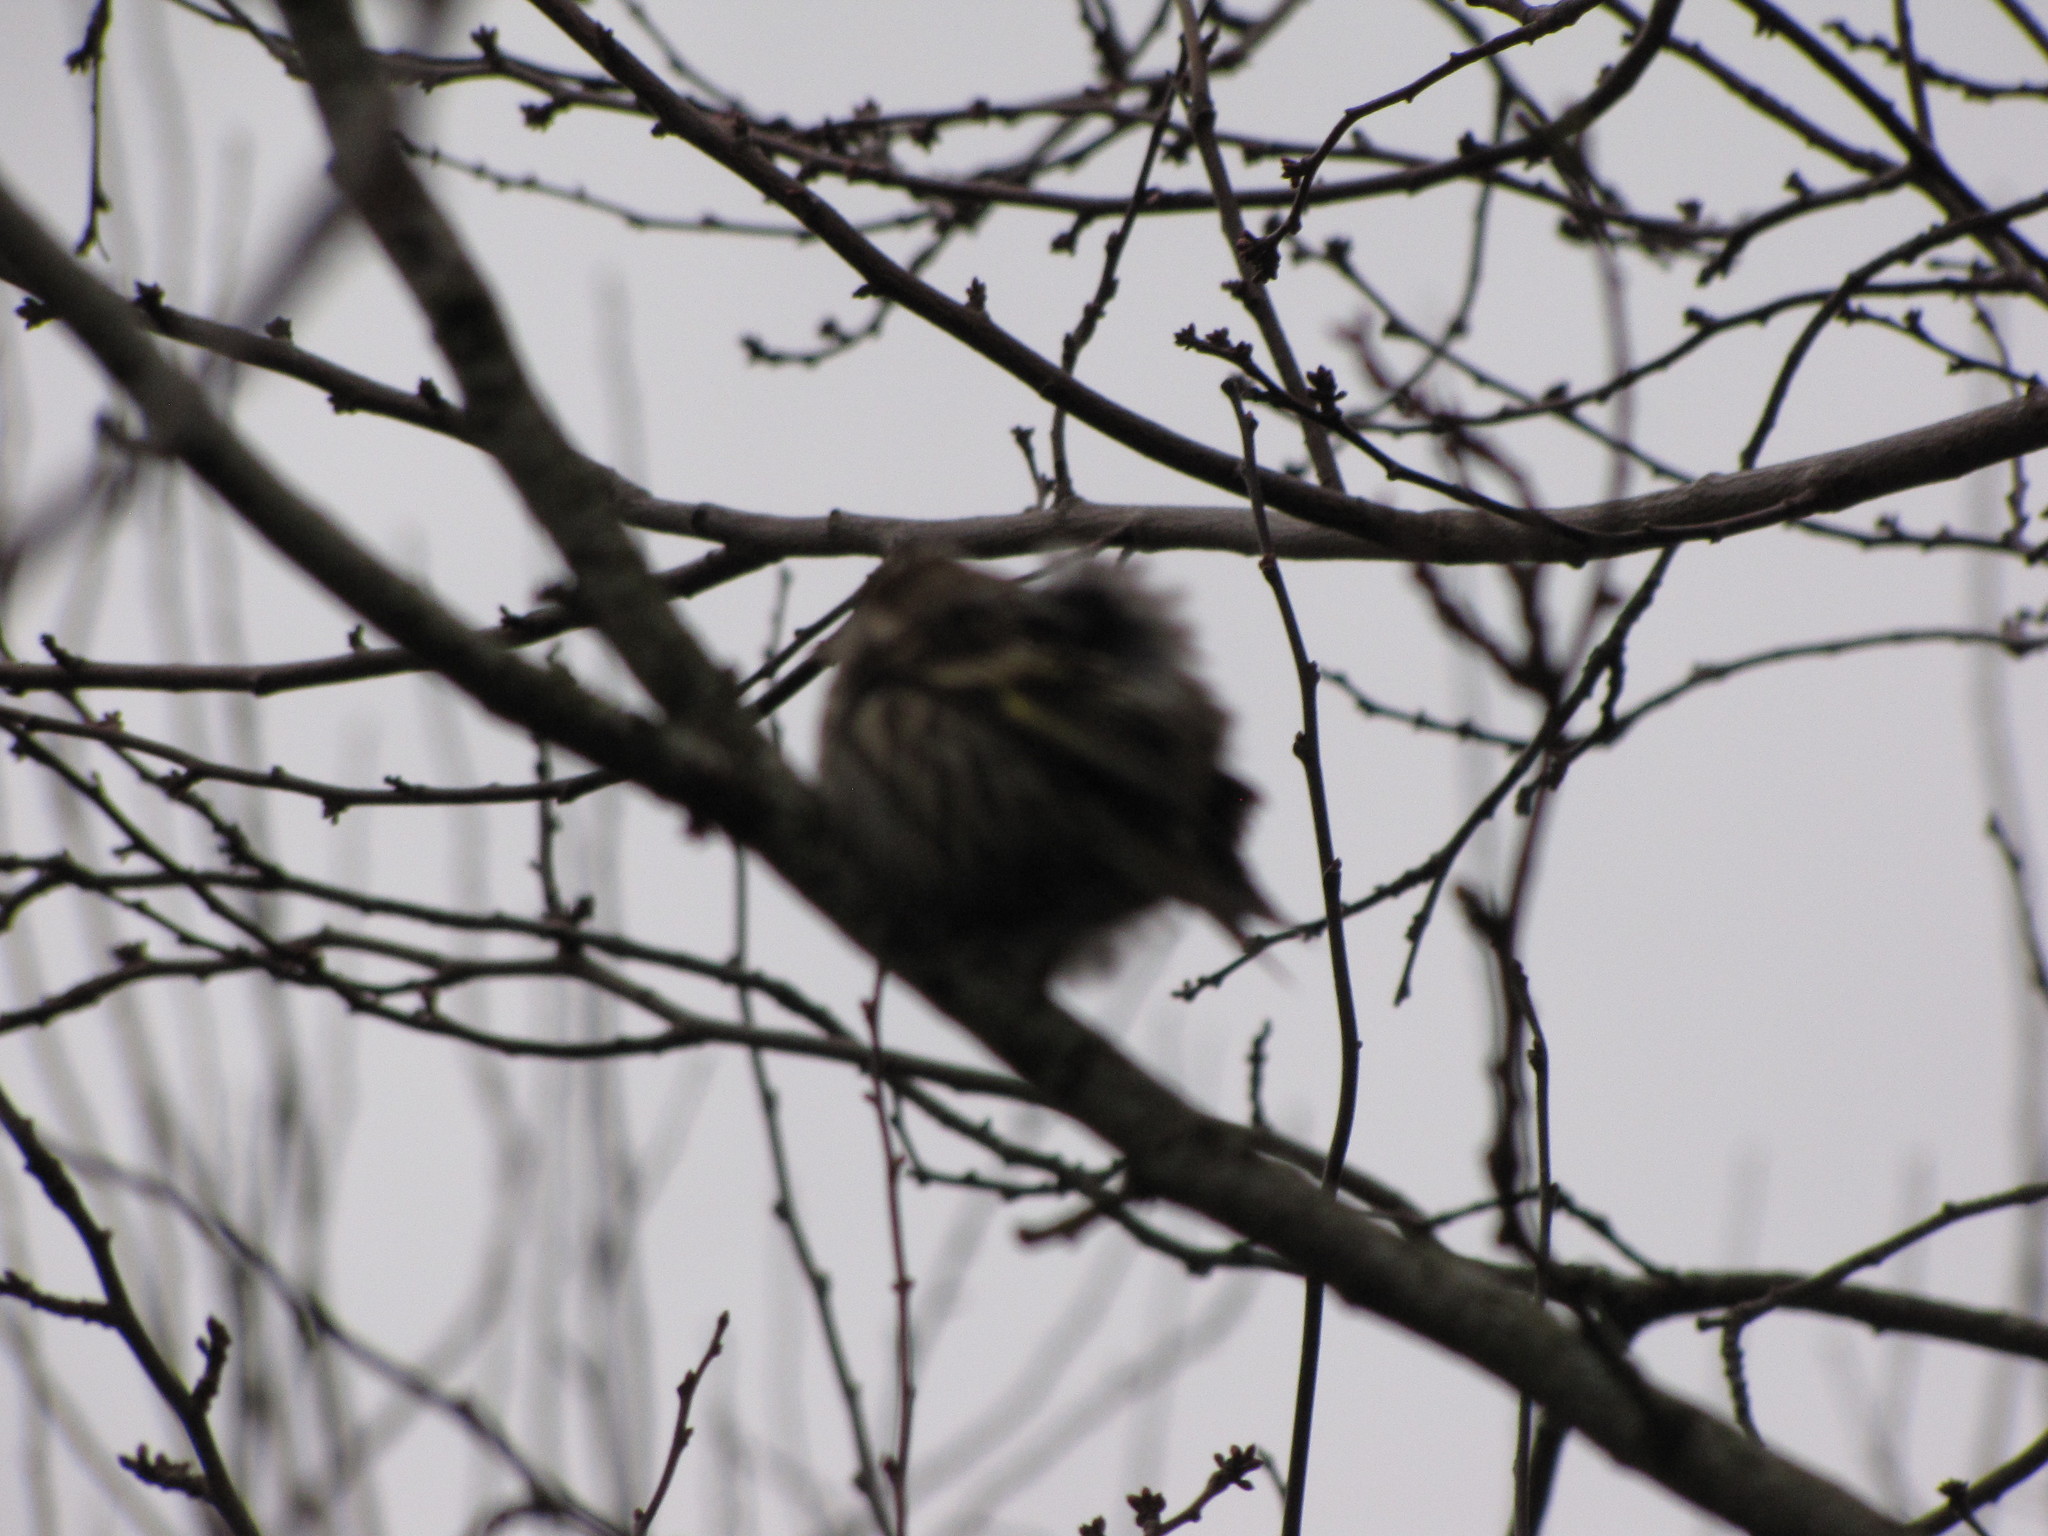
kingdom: Animalia
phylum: Chordata
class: Aves
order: Passeriformes
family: Fringillidae
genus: Spinus
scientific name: Spinus pinus
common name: Pine siskin
